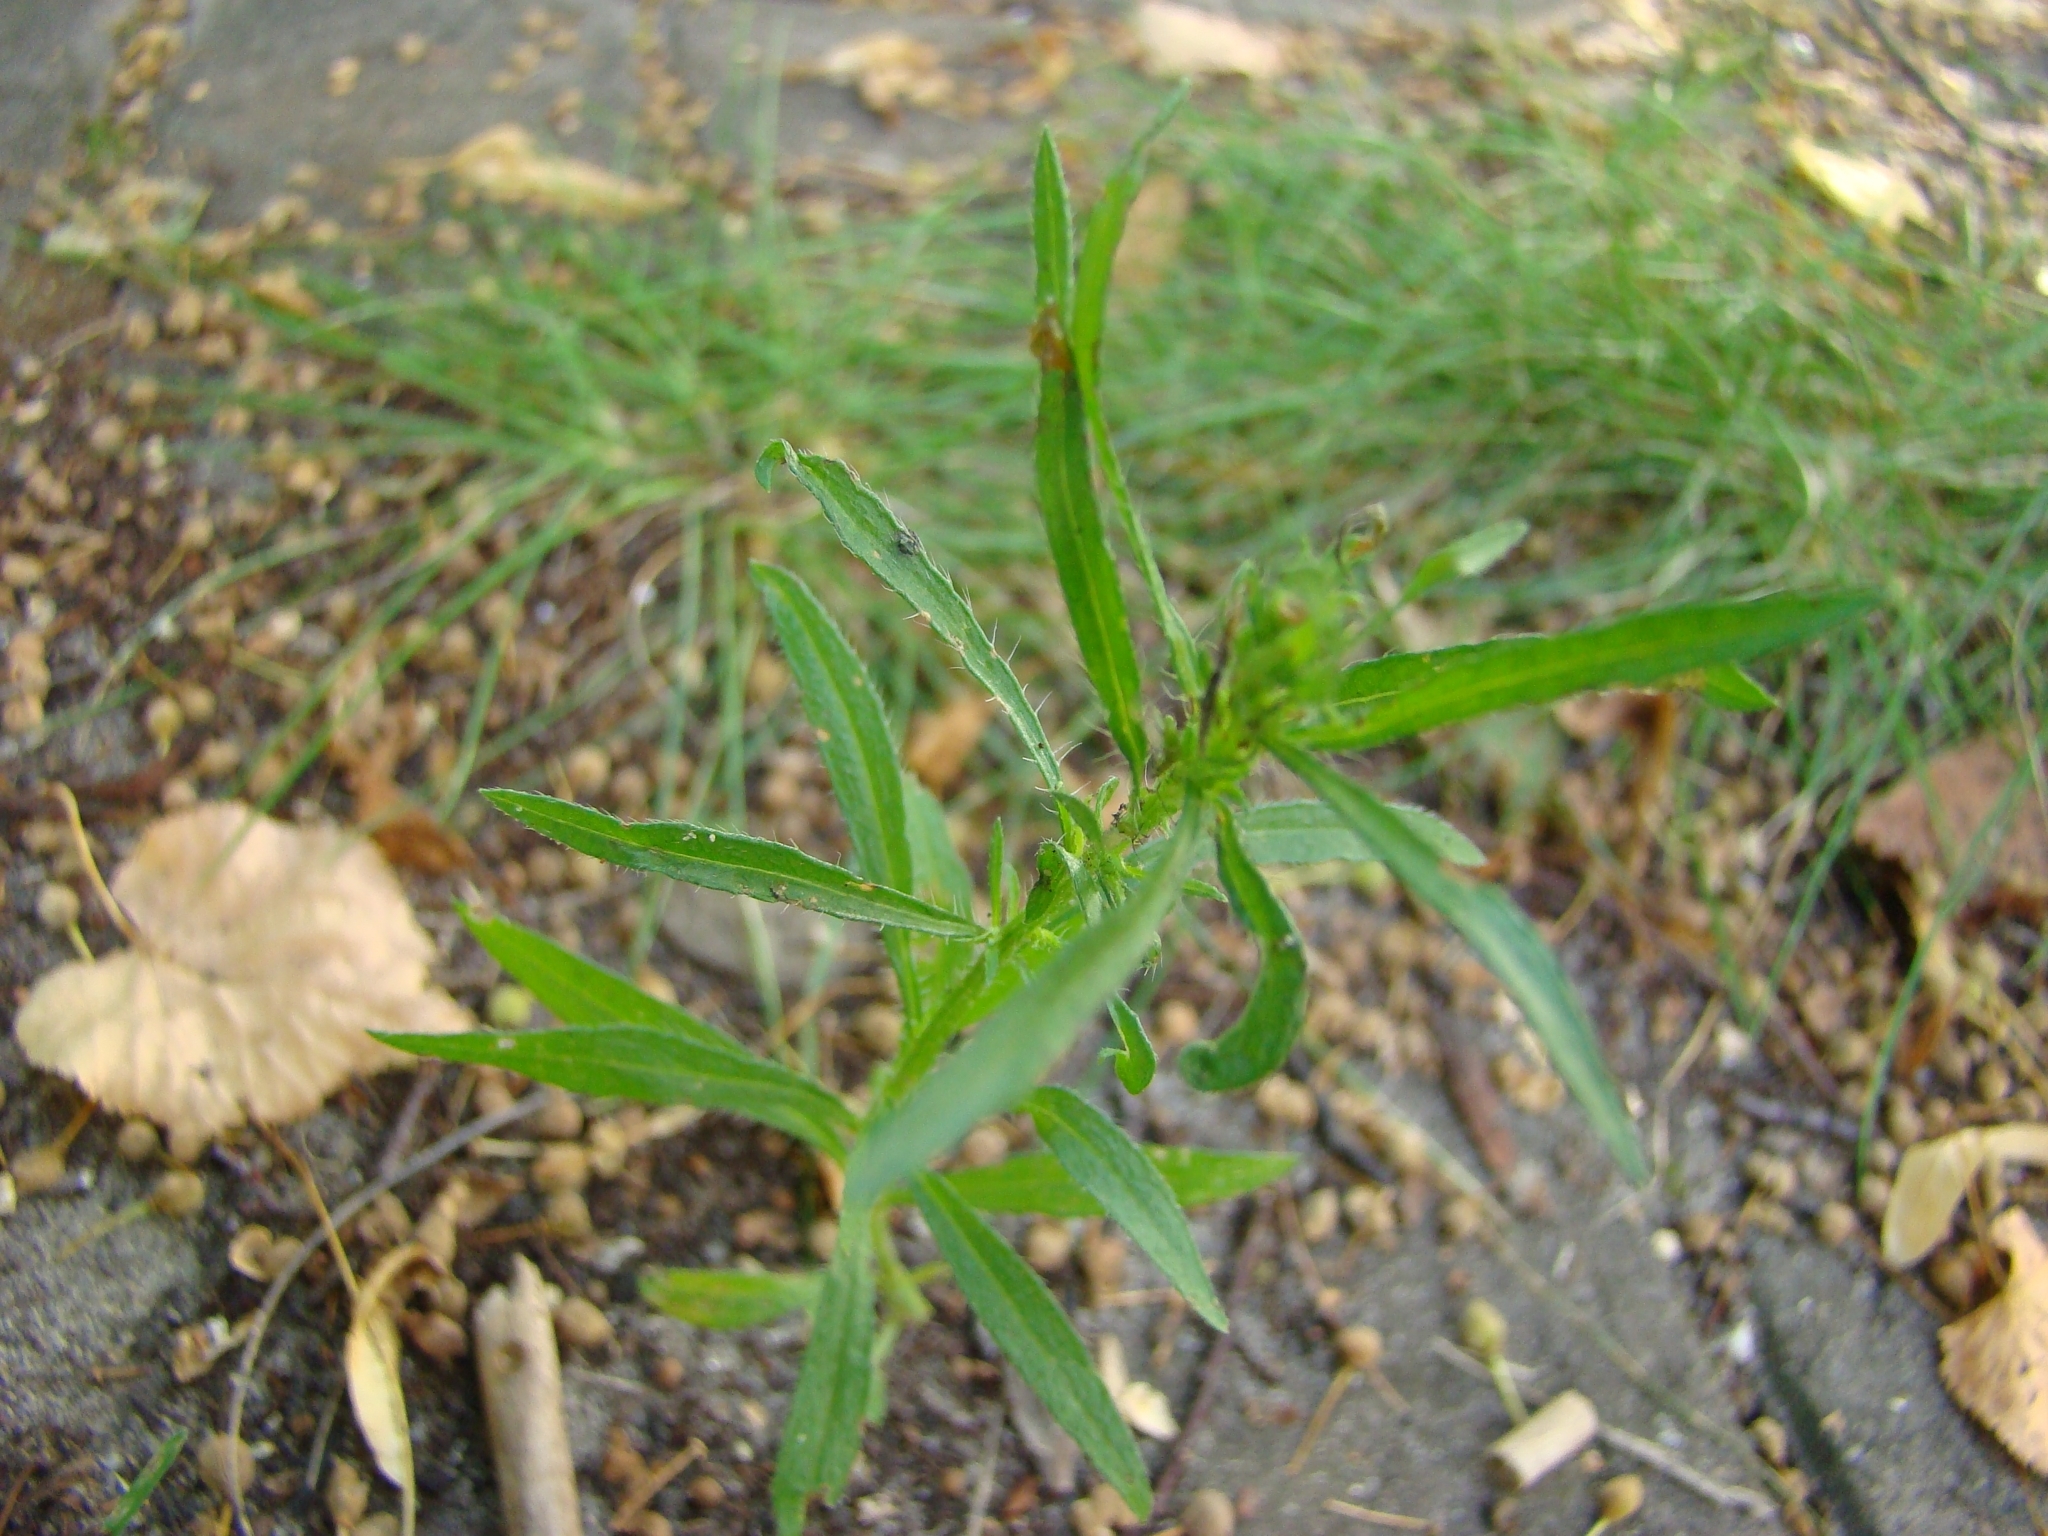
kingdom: Plantae
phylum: Tracheophyta
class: Magnoliopsida
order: Asterales
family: Asteraceae
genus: Erigeron
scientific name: Erigeron canadensis
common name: Canadian fleabane
